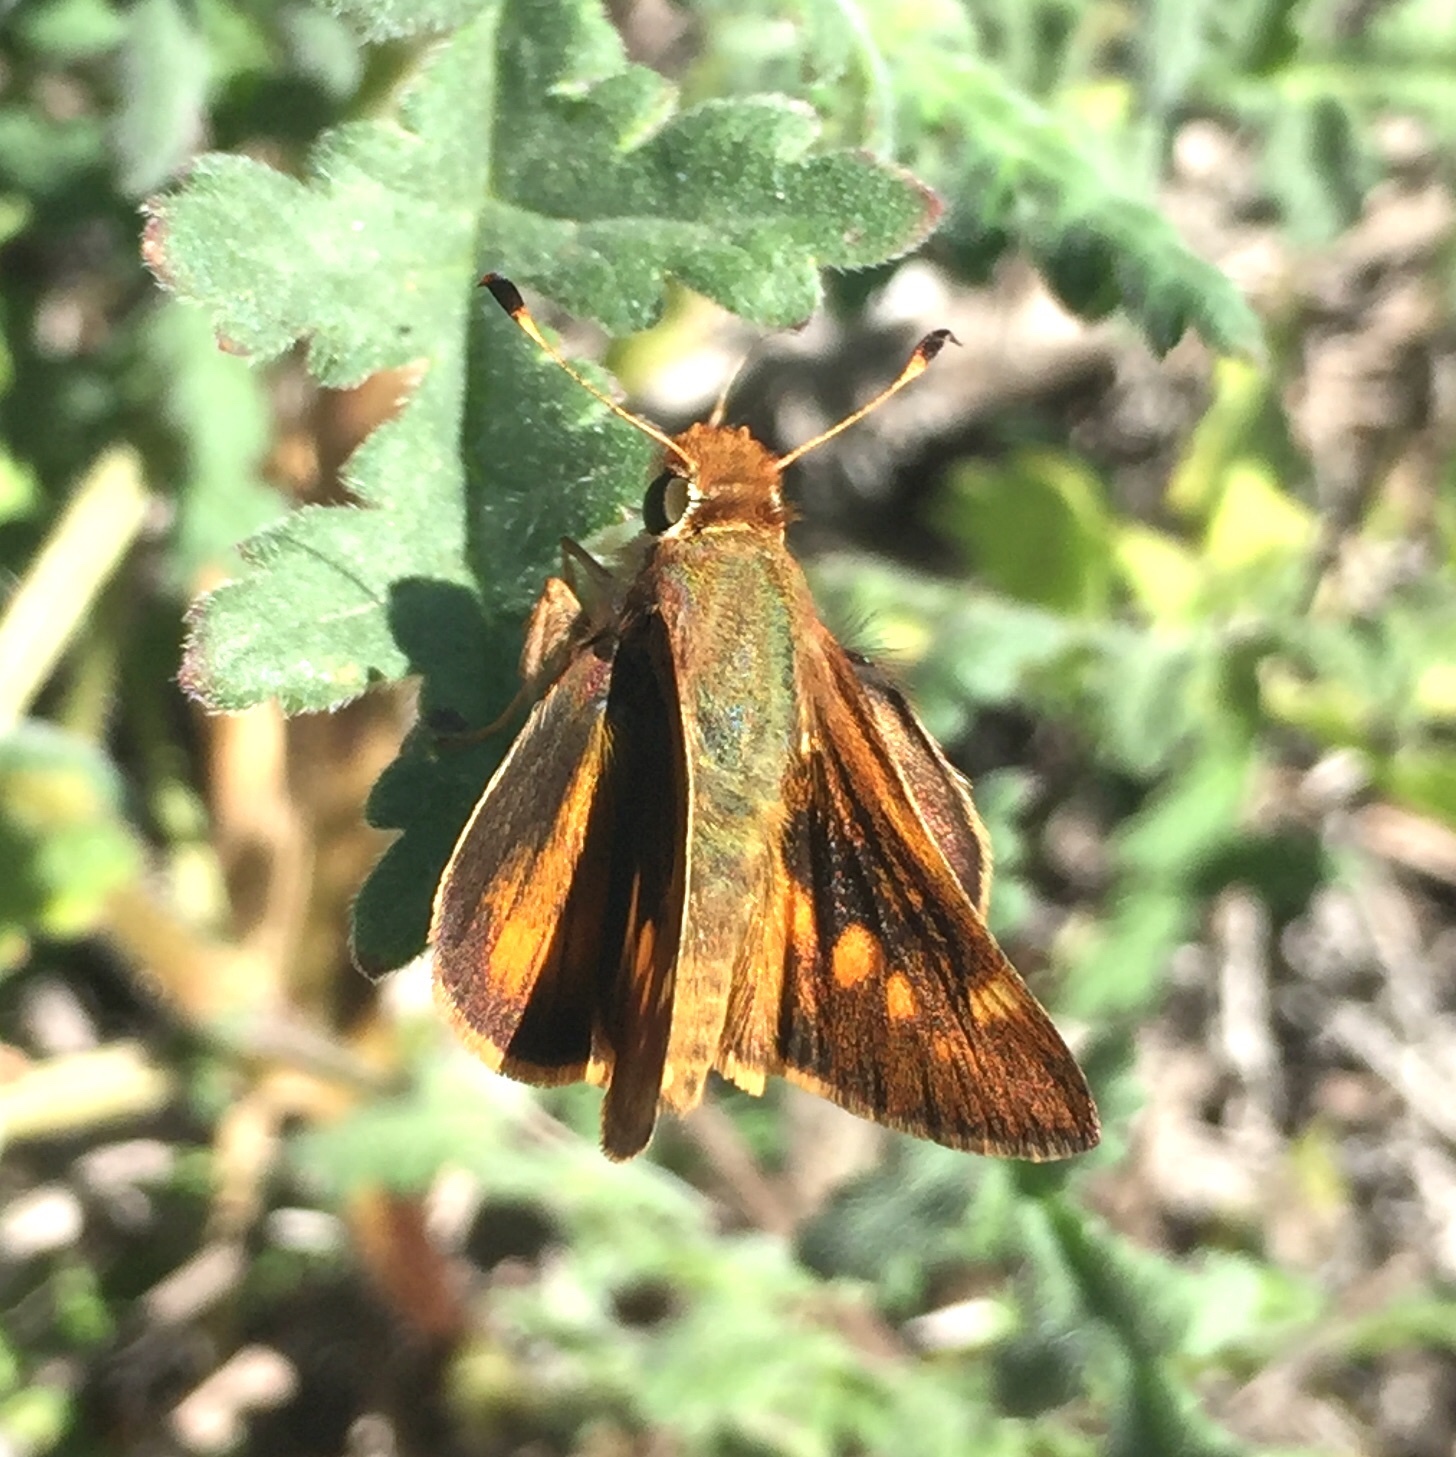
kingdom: Animalia
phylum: Arthropoda
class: Insecta
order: Lepidoptera
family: Hesperiidae
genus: Lon
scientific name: Lon melane
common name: Umber skipper
